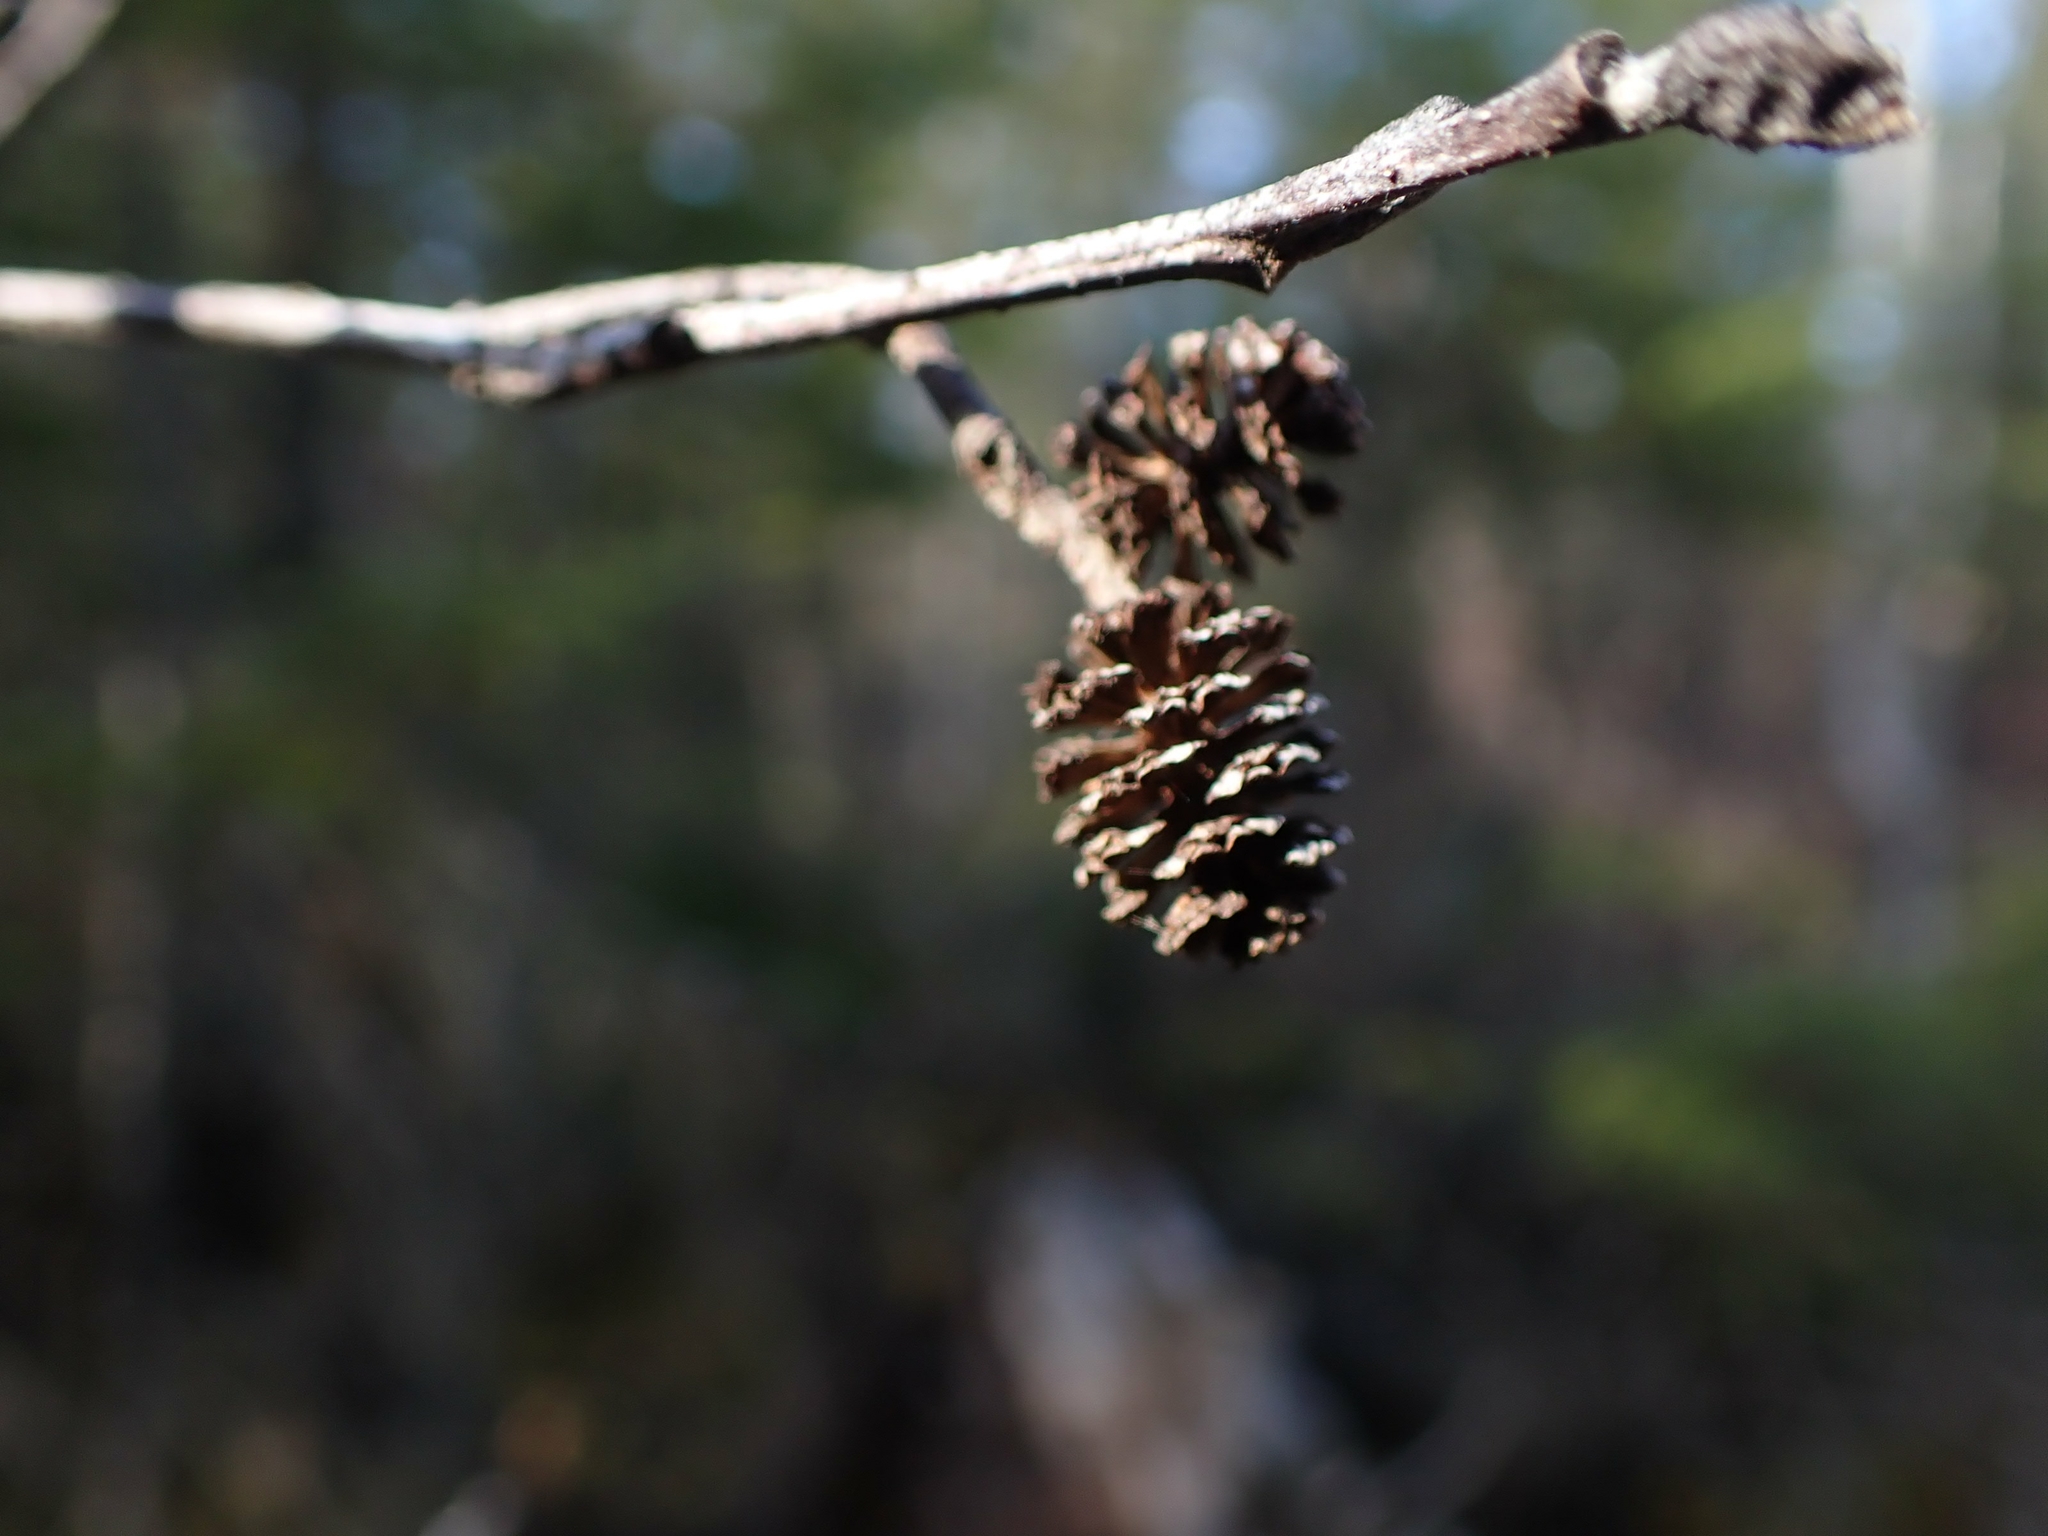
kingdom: Plantae
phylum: Tracheophyta
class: Magnoliopsida
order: Fagales
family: Betulaceae
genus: Alnus
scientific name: Alnus incana
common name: Grey alder
